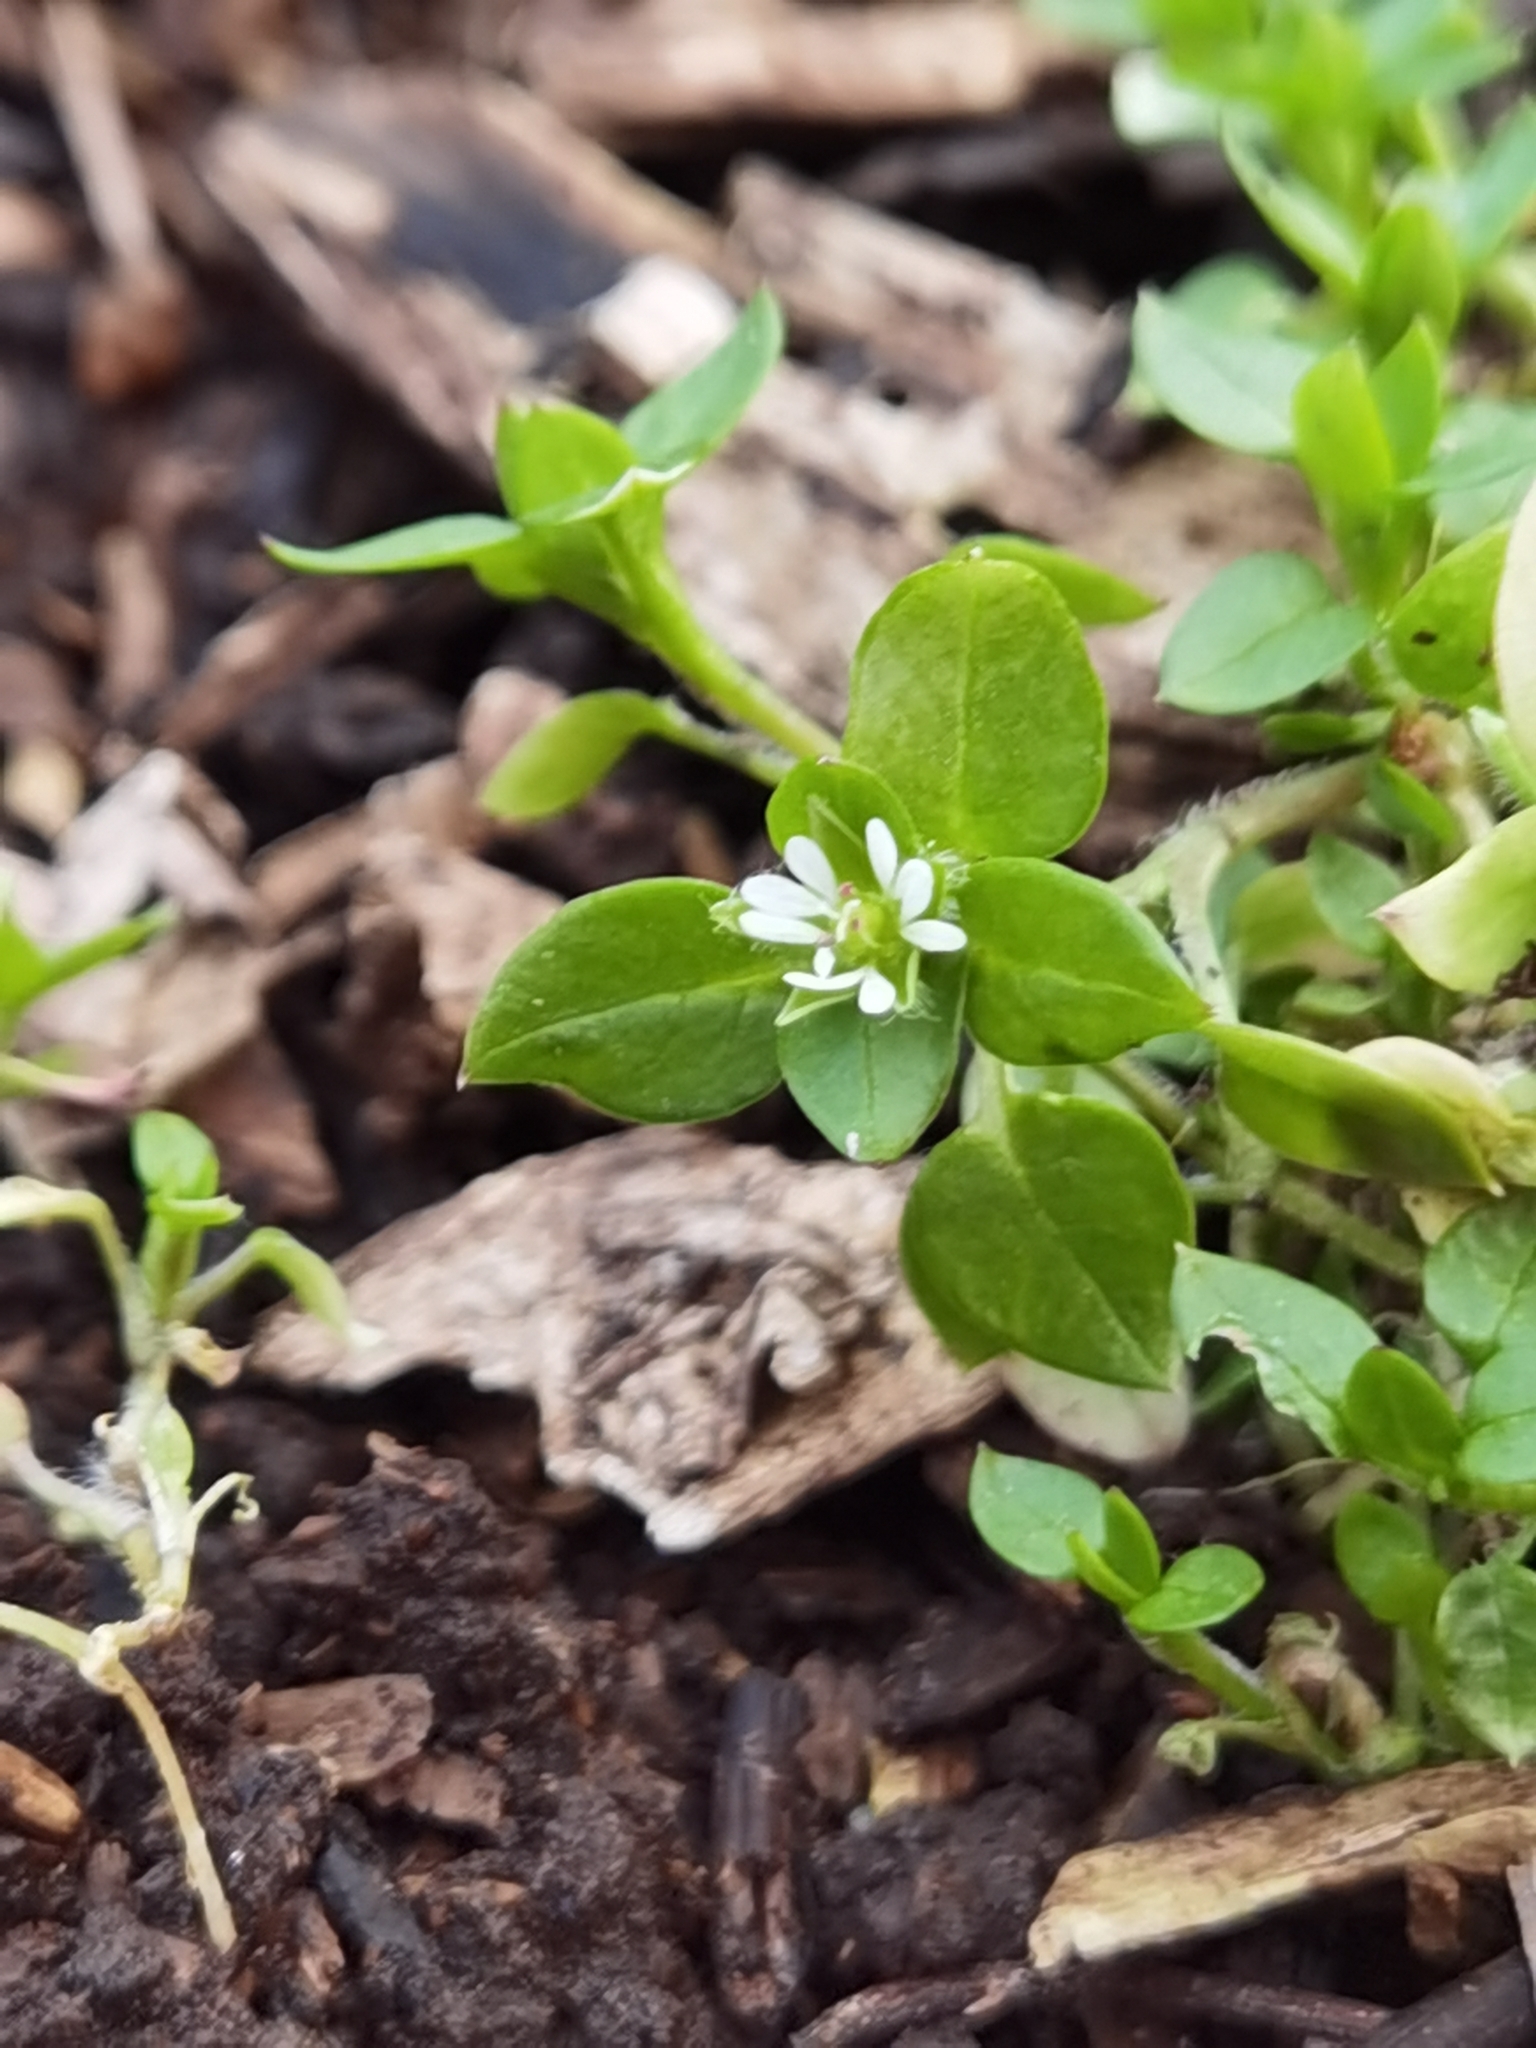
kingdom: Plantae
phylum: Tracheophyta
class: Magnoliopsida
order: Caryophyllales
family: Caryophyllaceae
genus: Stellaria
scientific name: Stellaria media
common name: Common chickweed
